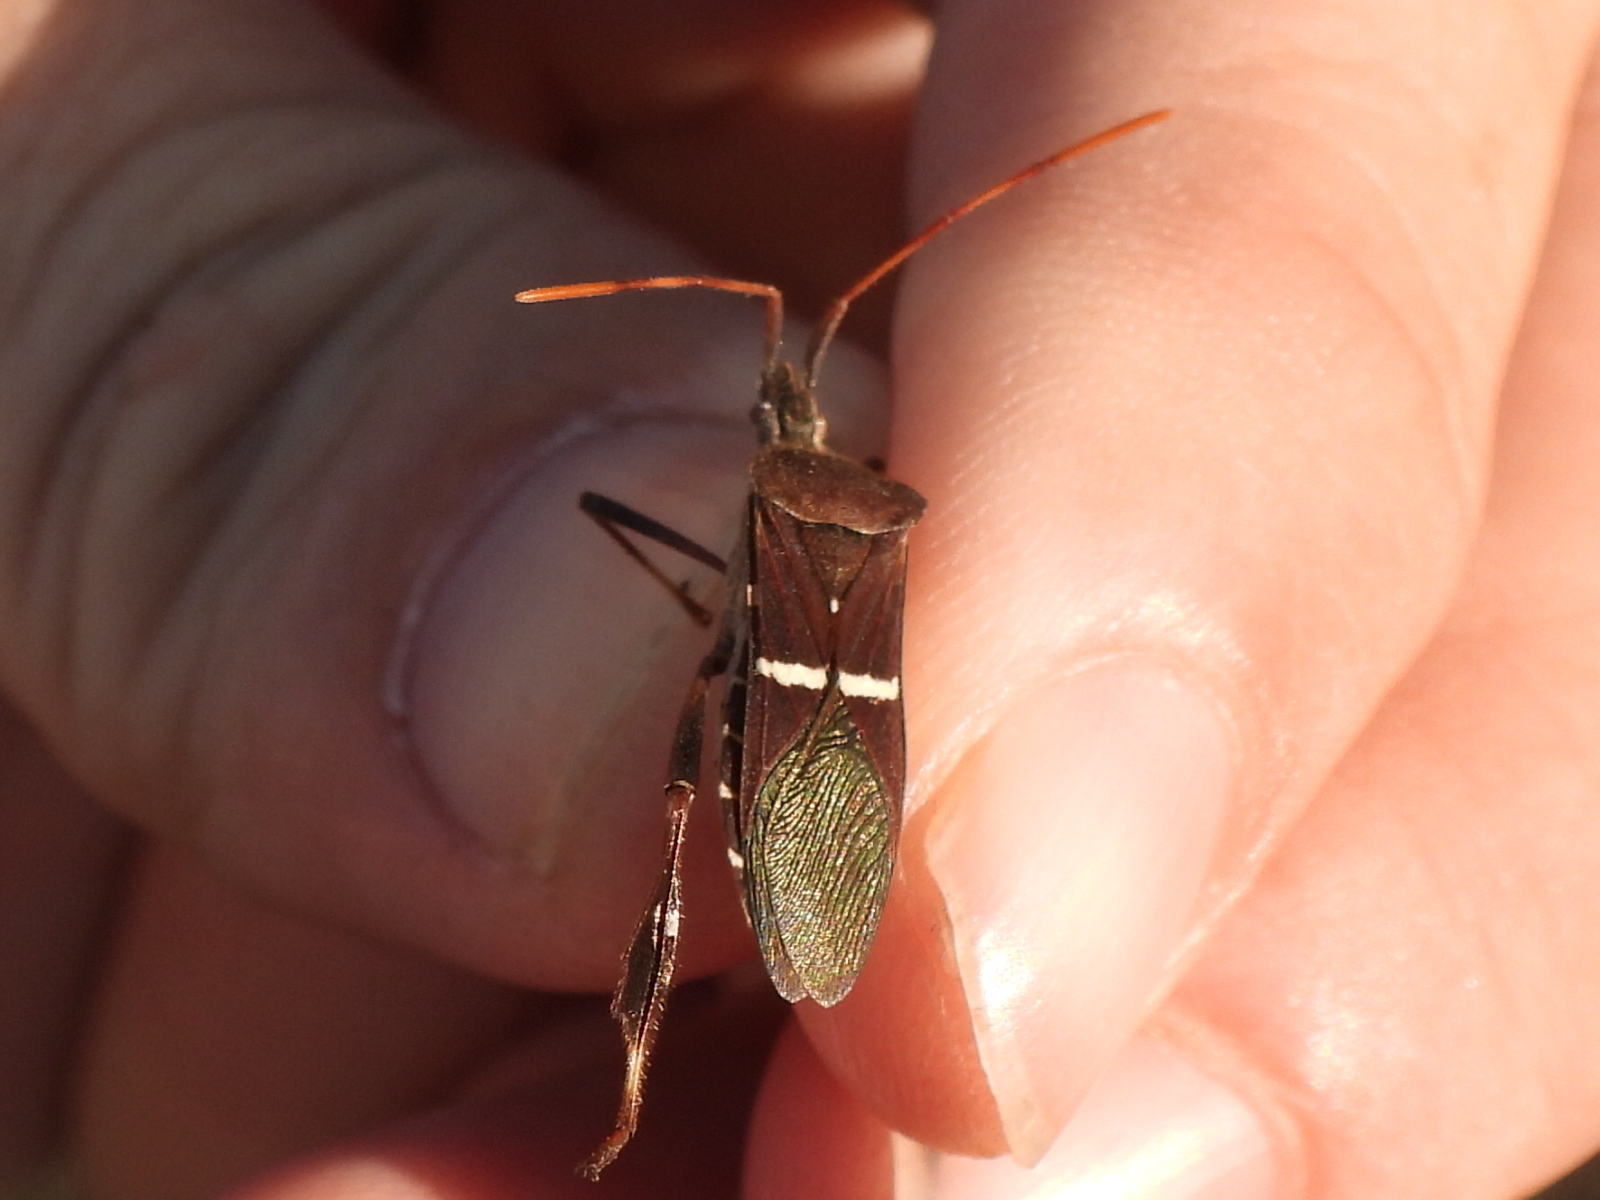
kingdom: Animalia
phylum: Arthropoda
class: Insecta
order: Hemiptera
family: Coreidae
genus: Leptoglossus
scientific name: Leptoglossus phyllopus
